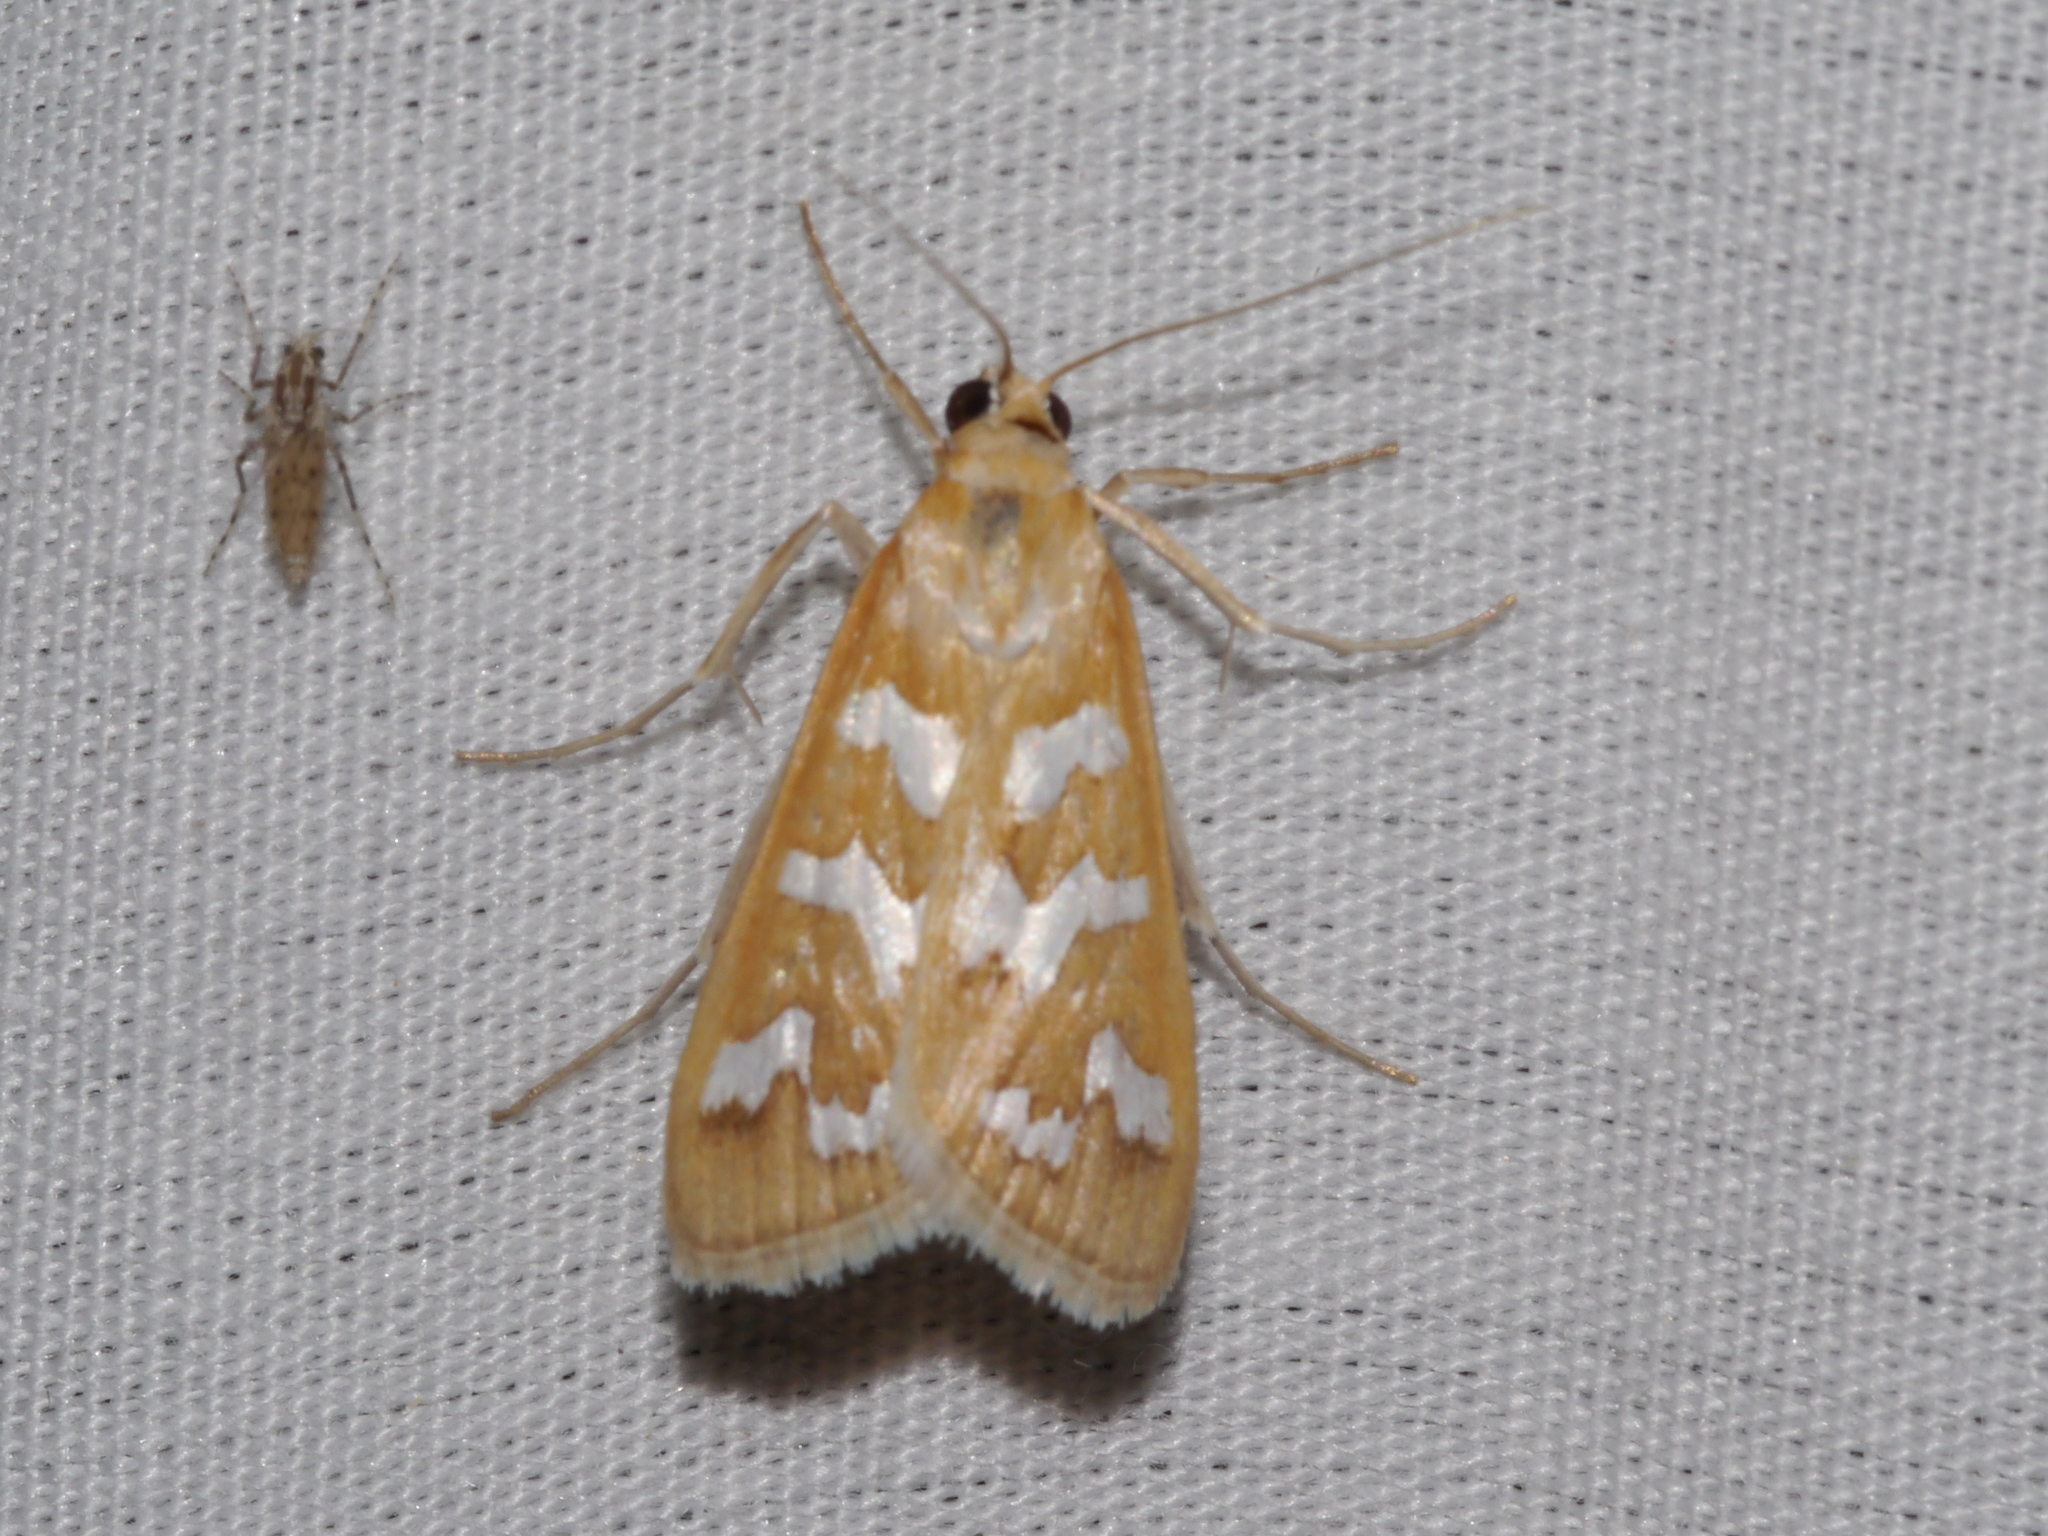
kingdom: Animalia
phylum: Arthropoda
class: Insecta
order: Lepidoptera
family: Crambidae
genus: Diastictis
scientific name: Diastictis fracturalis
